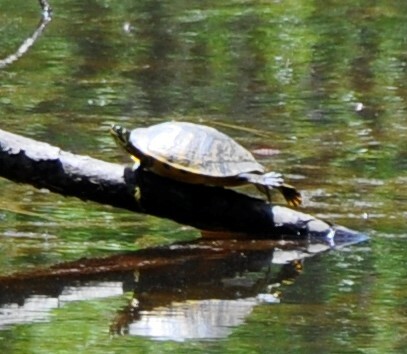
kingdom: Animalia
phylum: Chordata
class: Testudines
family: Emydidae
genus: Trachemys
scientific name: Trachemys scripta
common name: Slider
